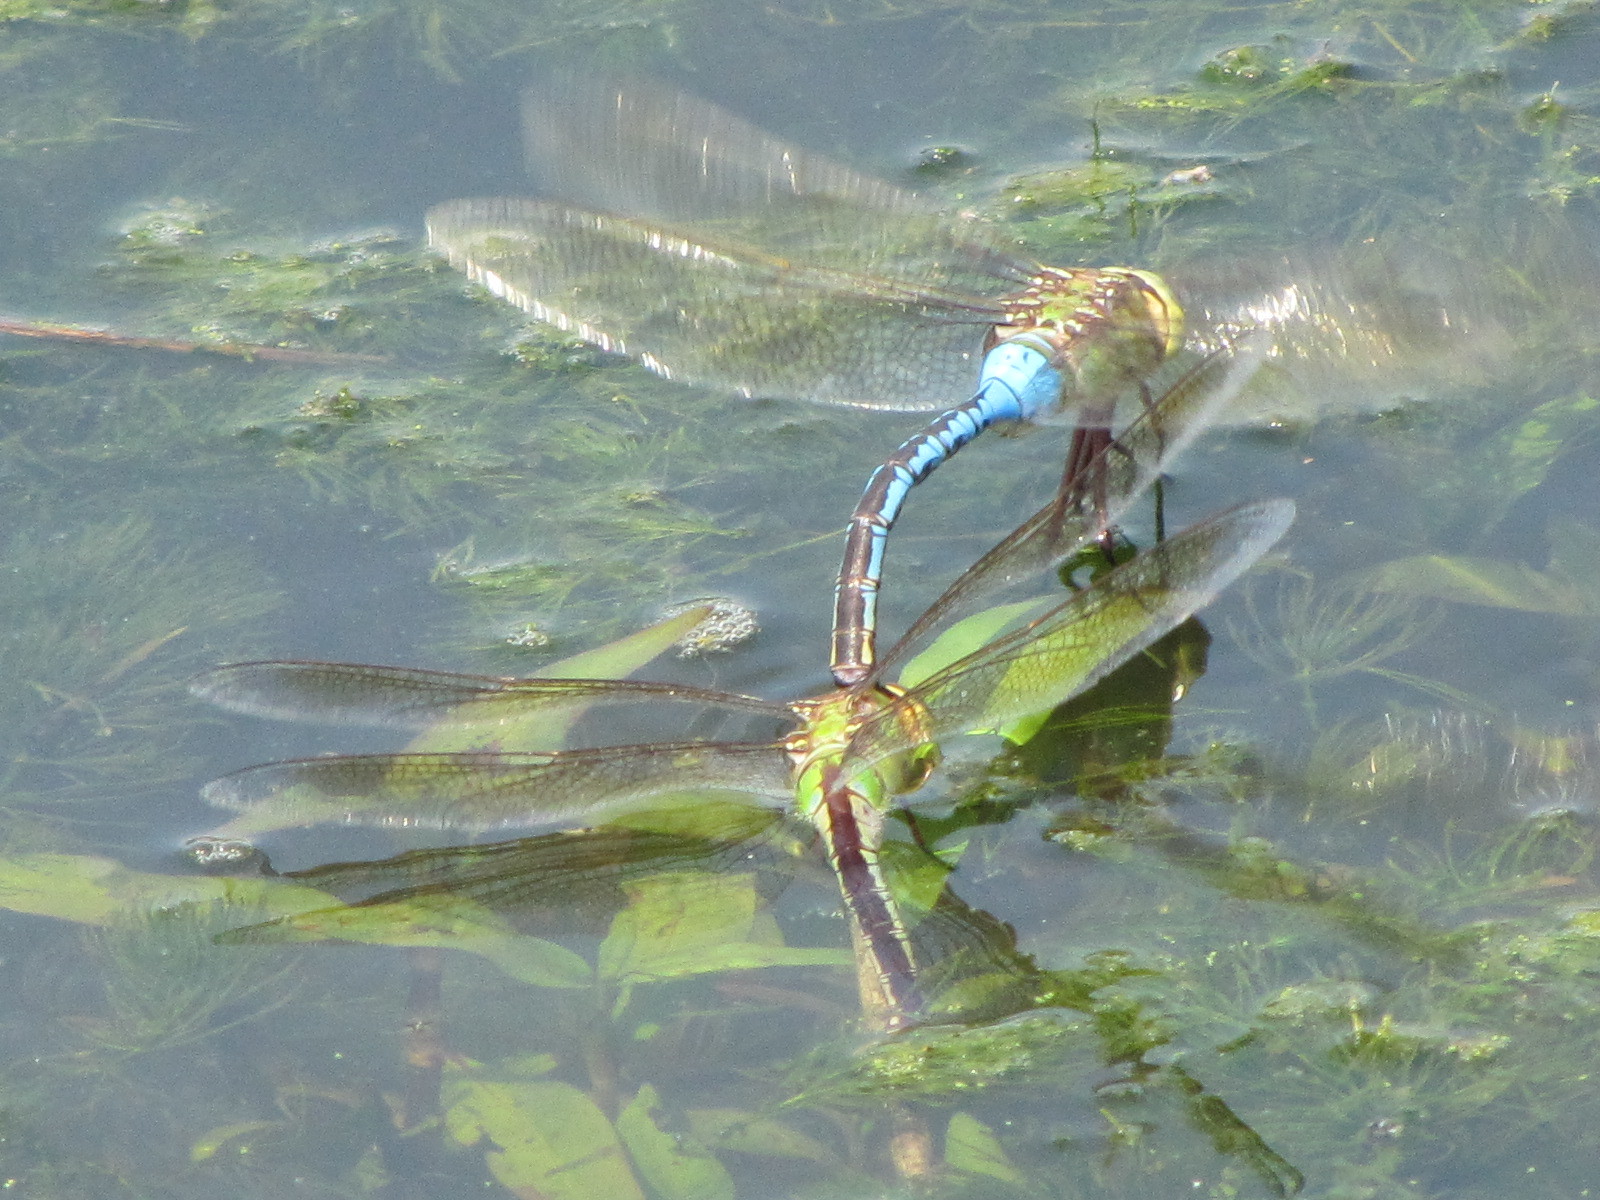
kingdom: Animalia
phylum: Arthropoda
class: Insecta
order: Odonata
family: Aeshnidae
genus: Anax
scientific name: Anax junius
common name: Common green darner
